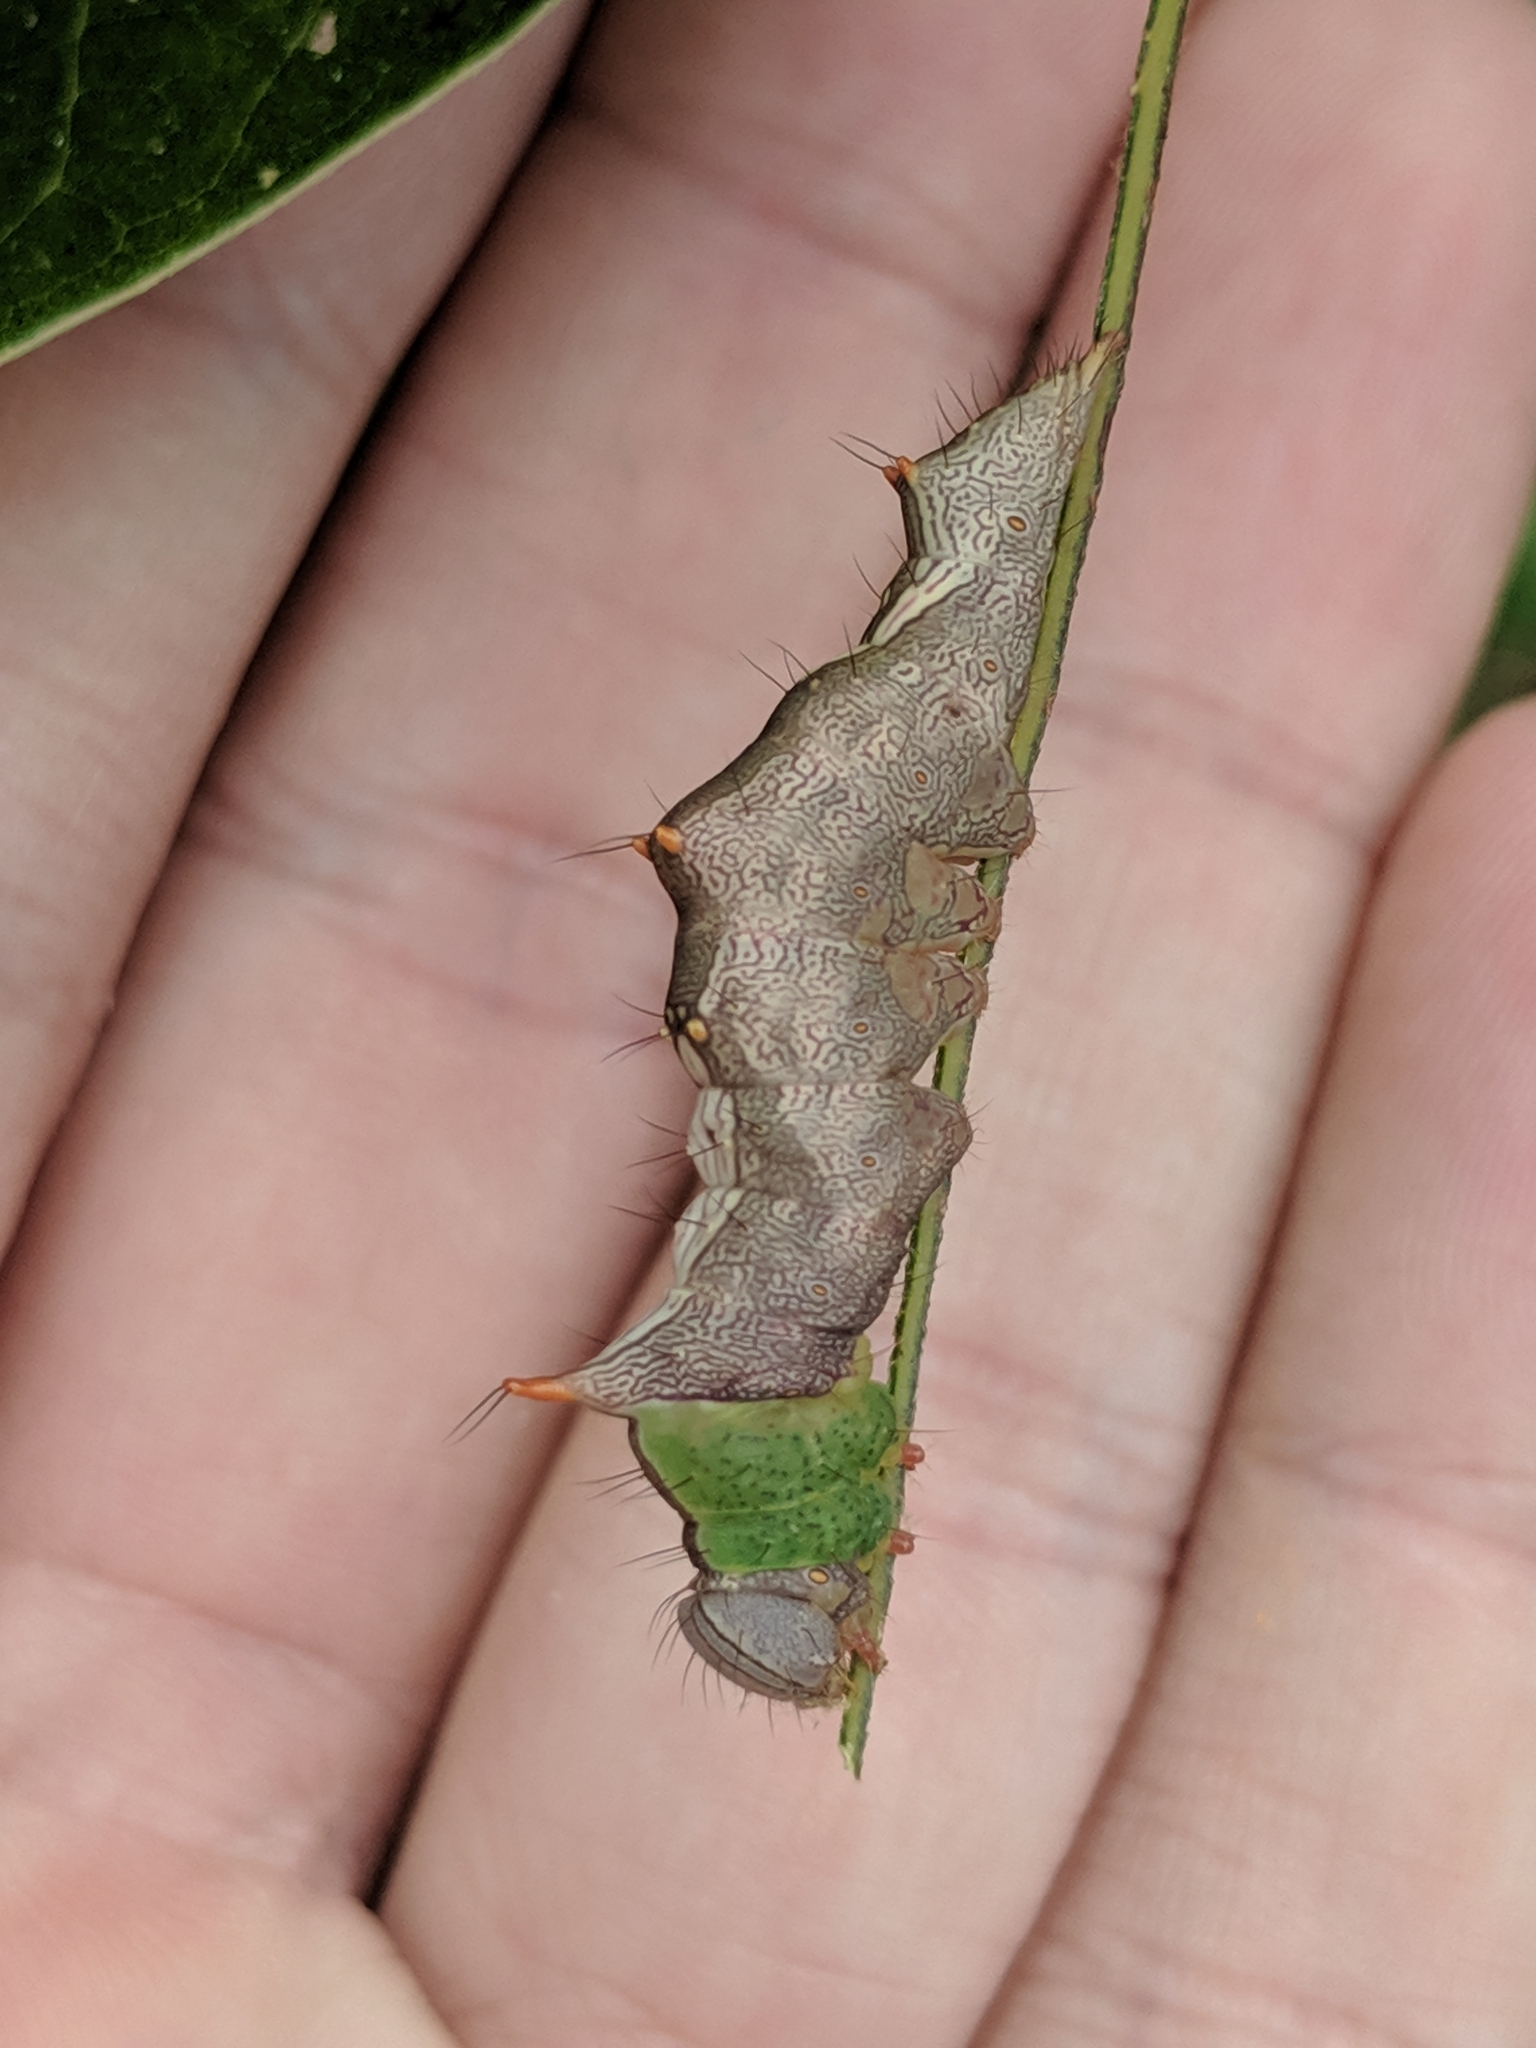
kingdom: Animalia
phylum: Arthropoda
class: Insecta
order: Lepidoptera
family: Notodontidae
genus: Schizura
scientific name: Schizura ipomaeae
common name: Morning-glory prominent
